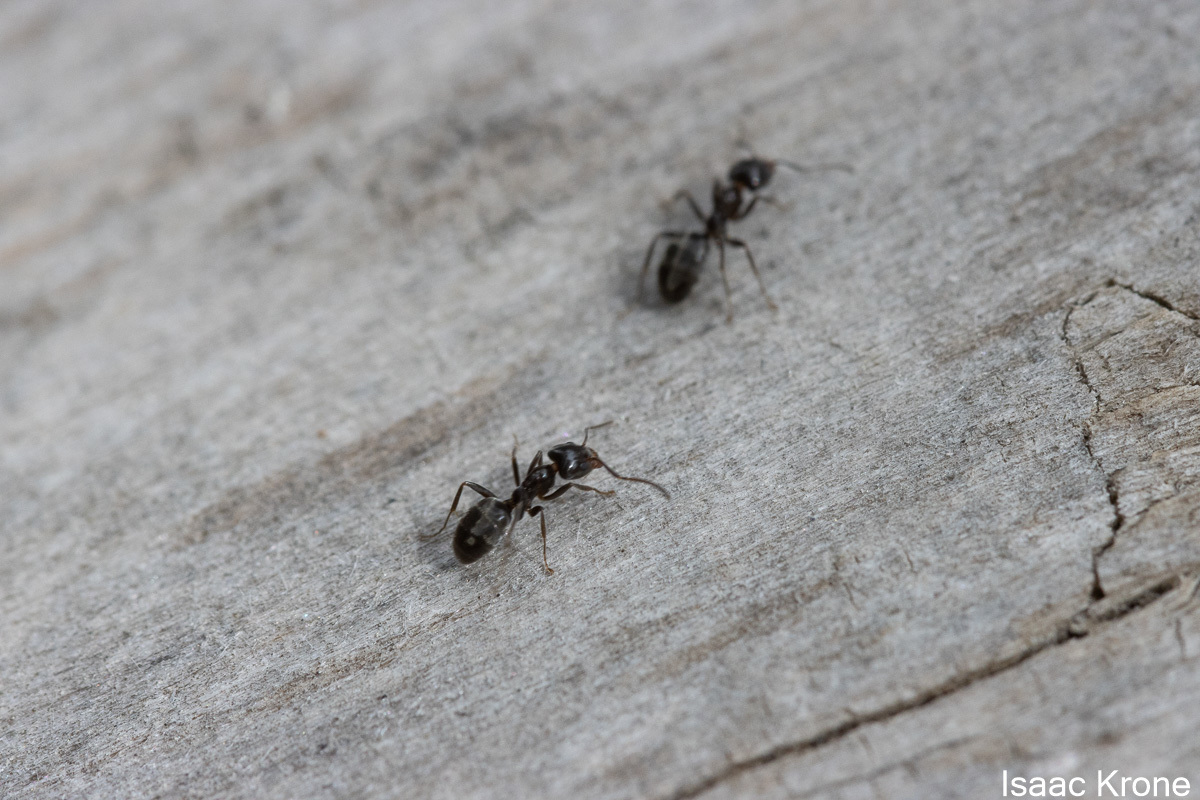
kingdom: Animalia
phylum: Arthropoda
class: Insecta
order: Hymenoptera
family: Formicidae
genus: Liometopum
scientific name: Liometopum luctuosum
